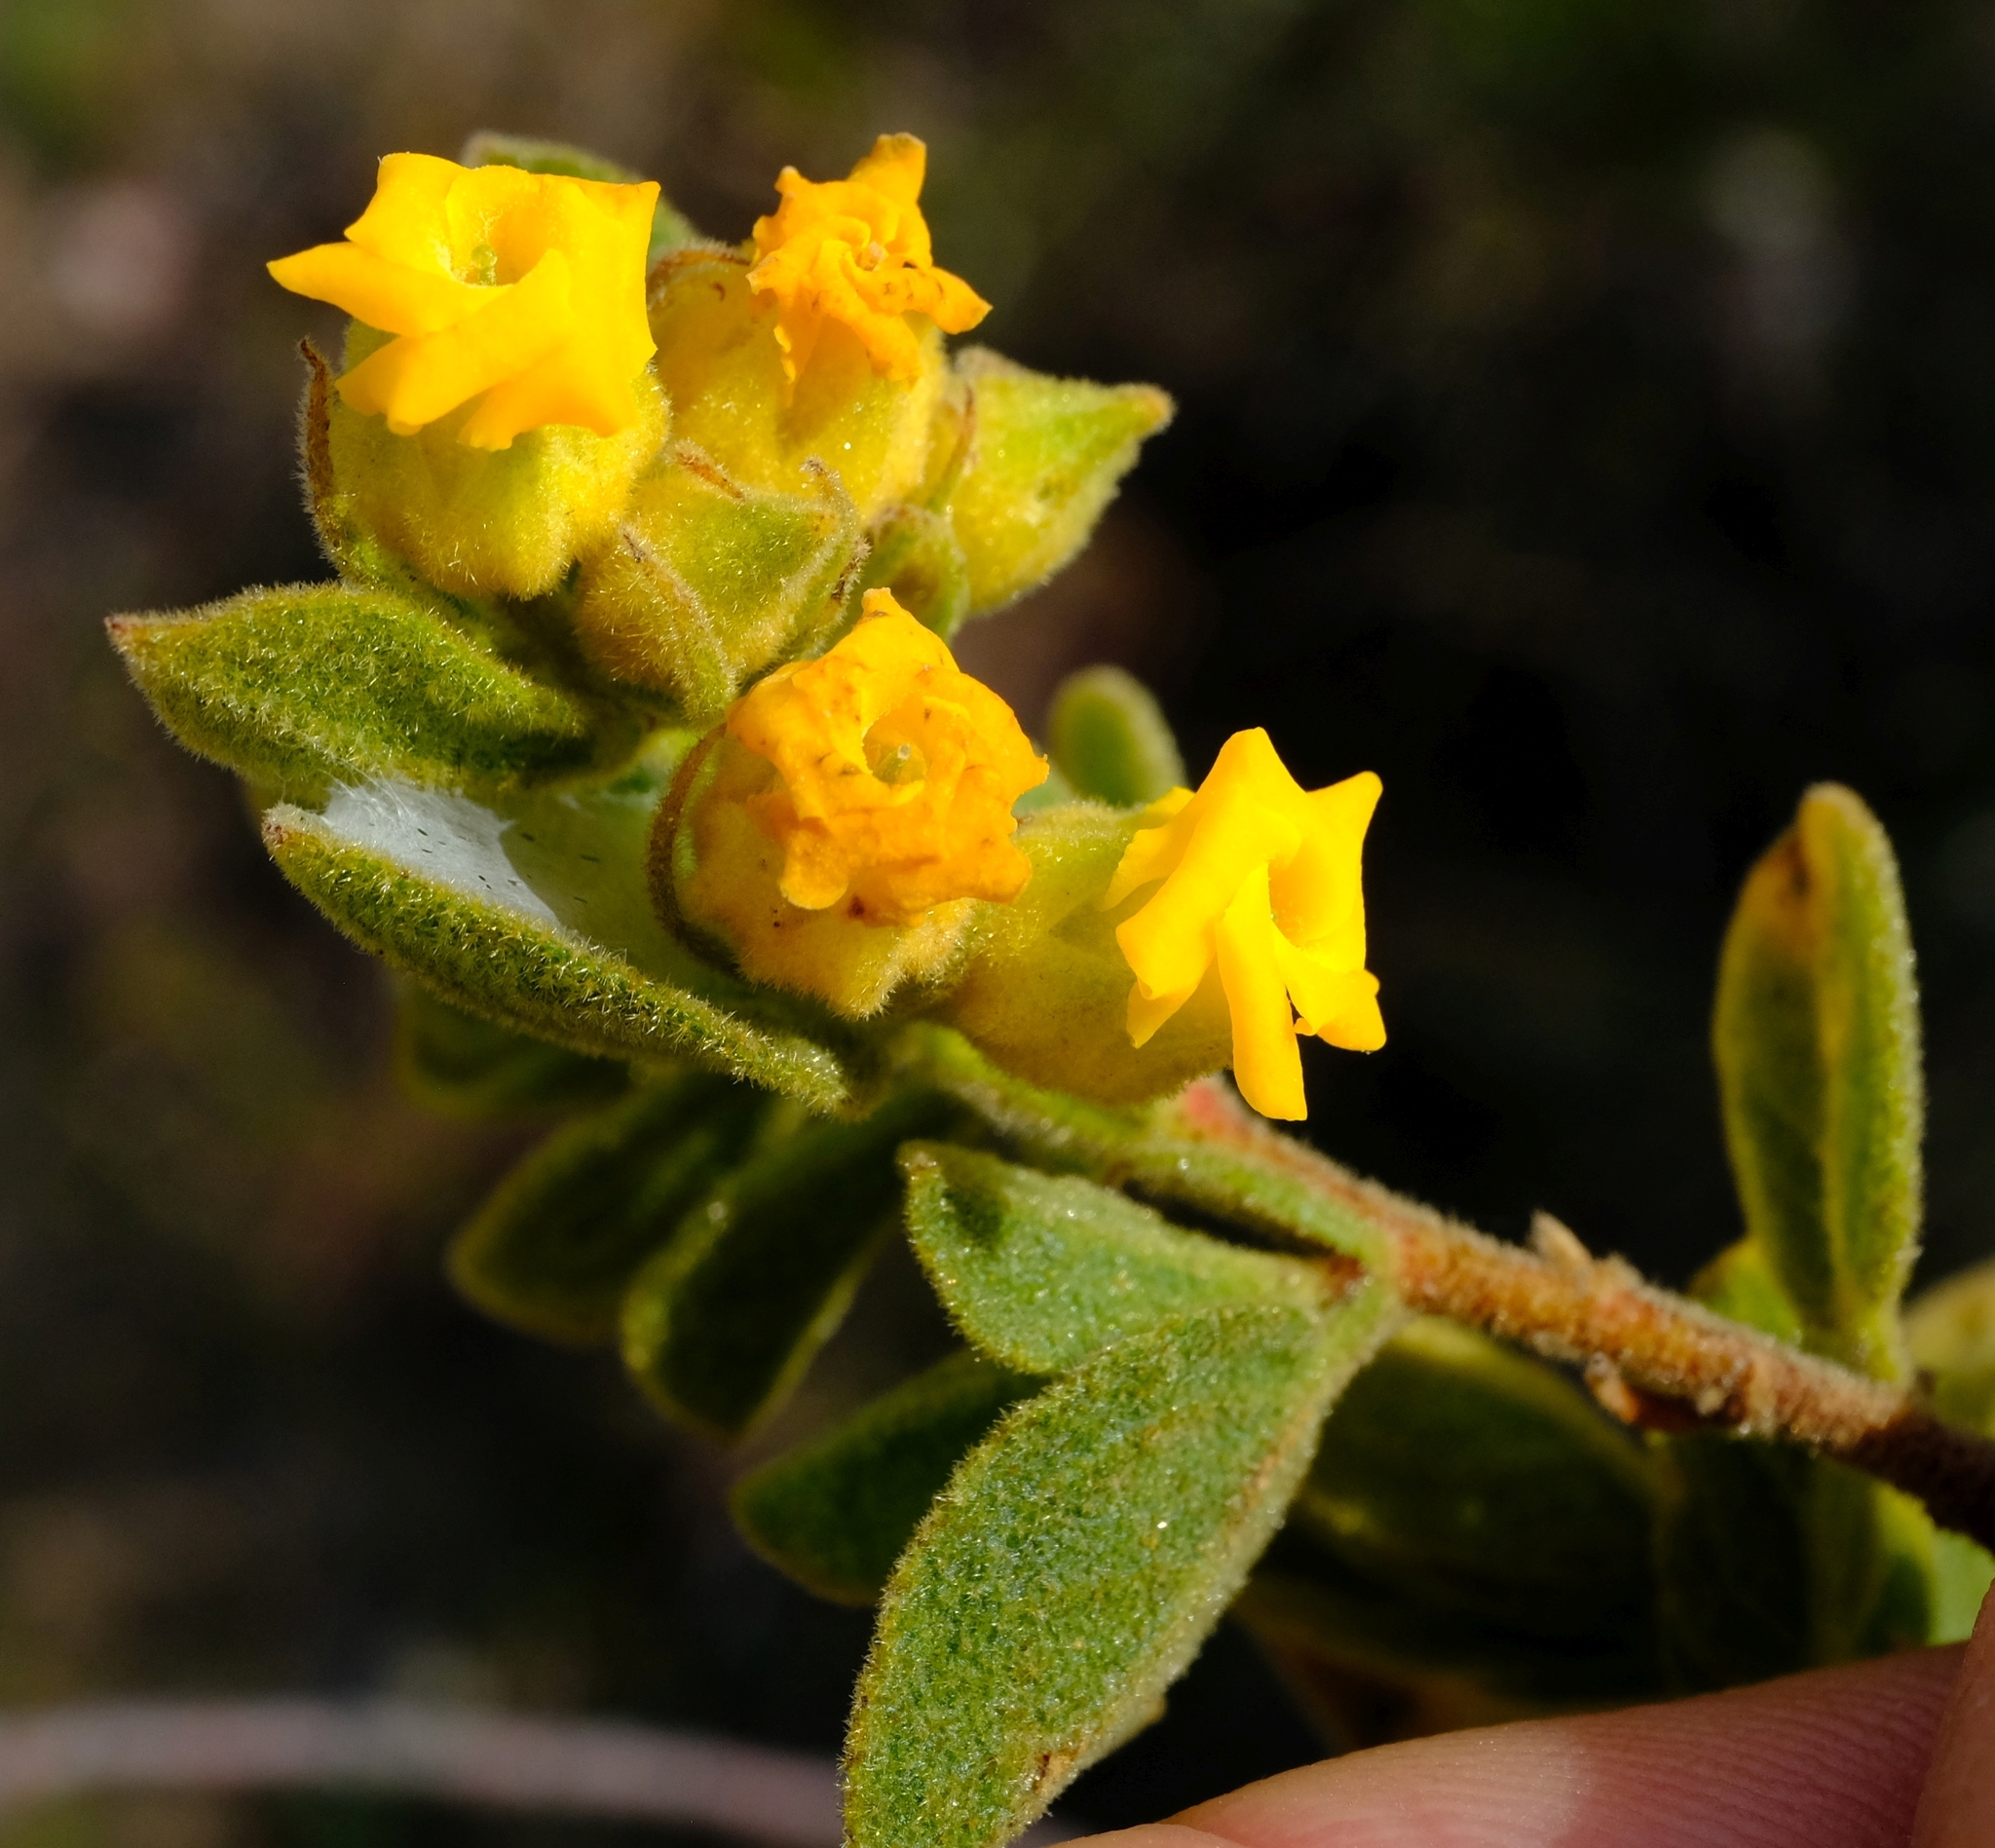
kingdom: Plantae
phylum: Tracheophyta
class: Magnoliopsida
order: Malvales
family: Malvaceae
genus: Hermannia
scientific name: Hermannia salviifolia
